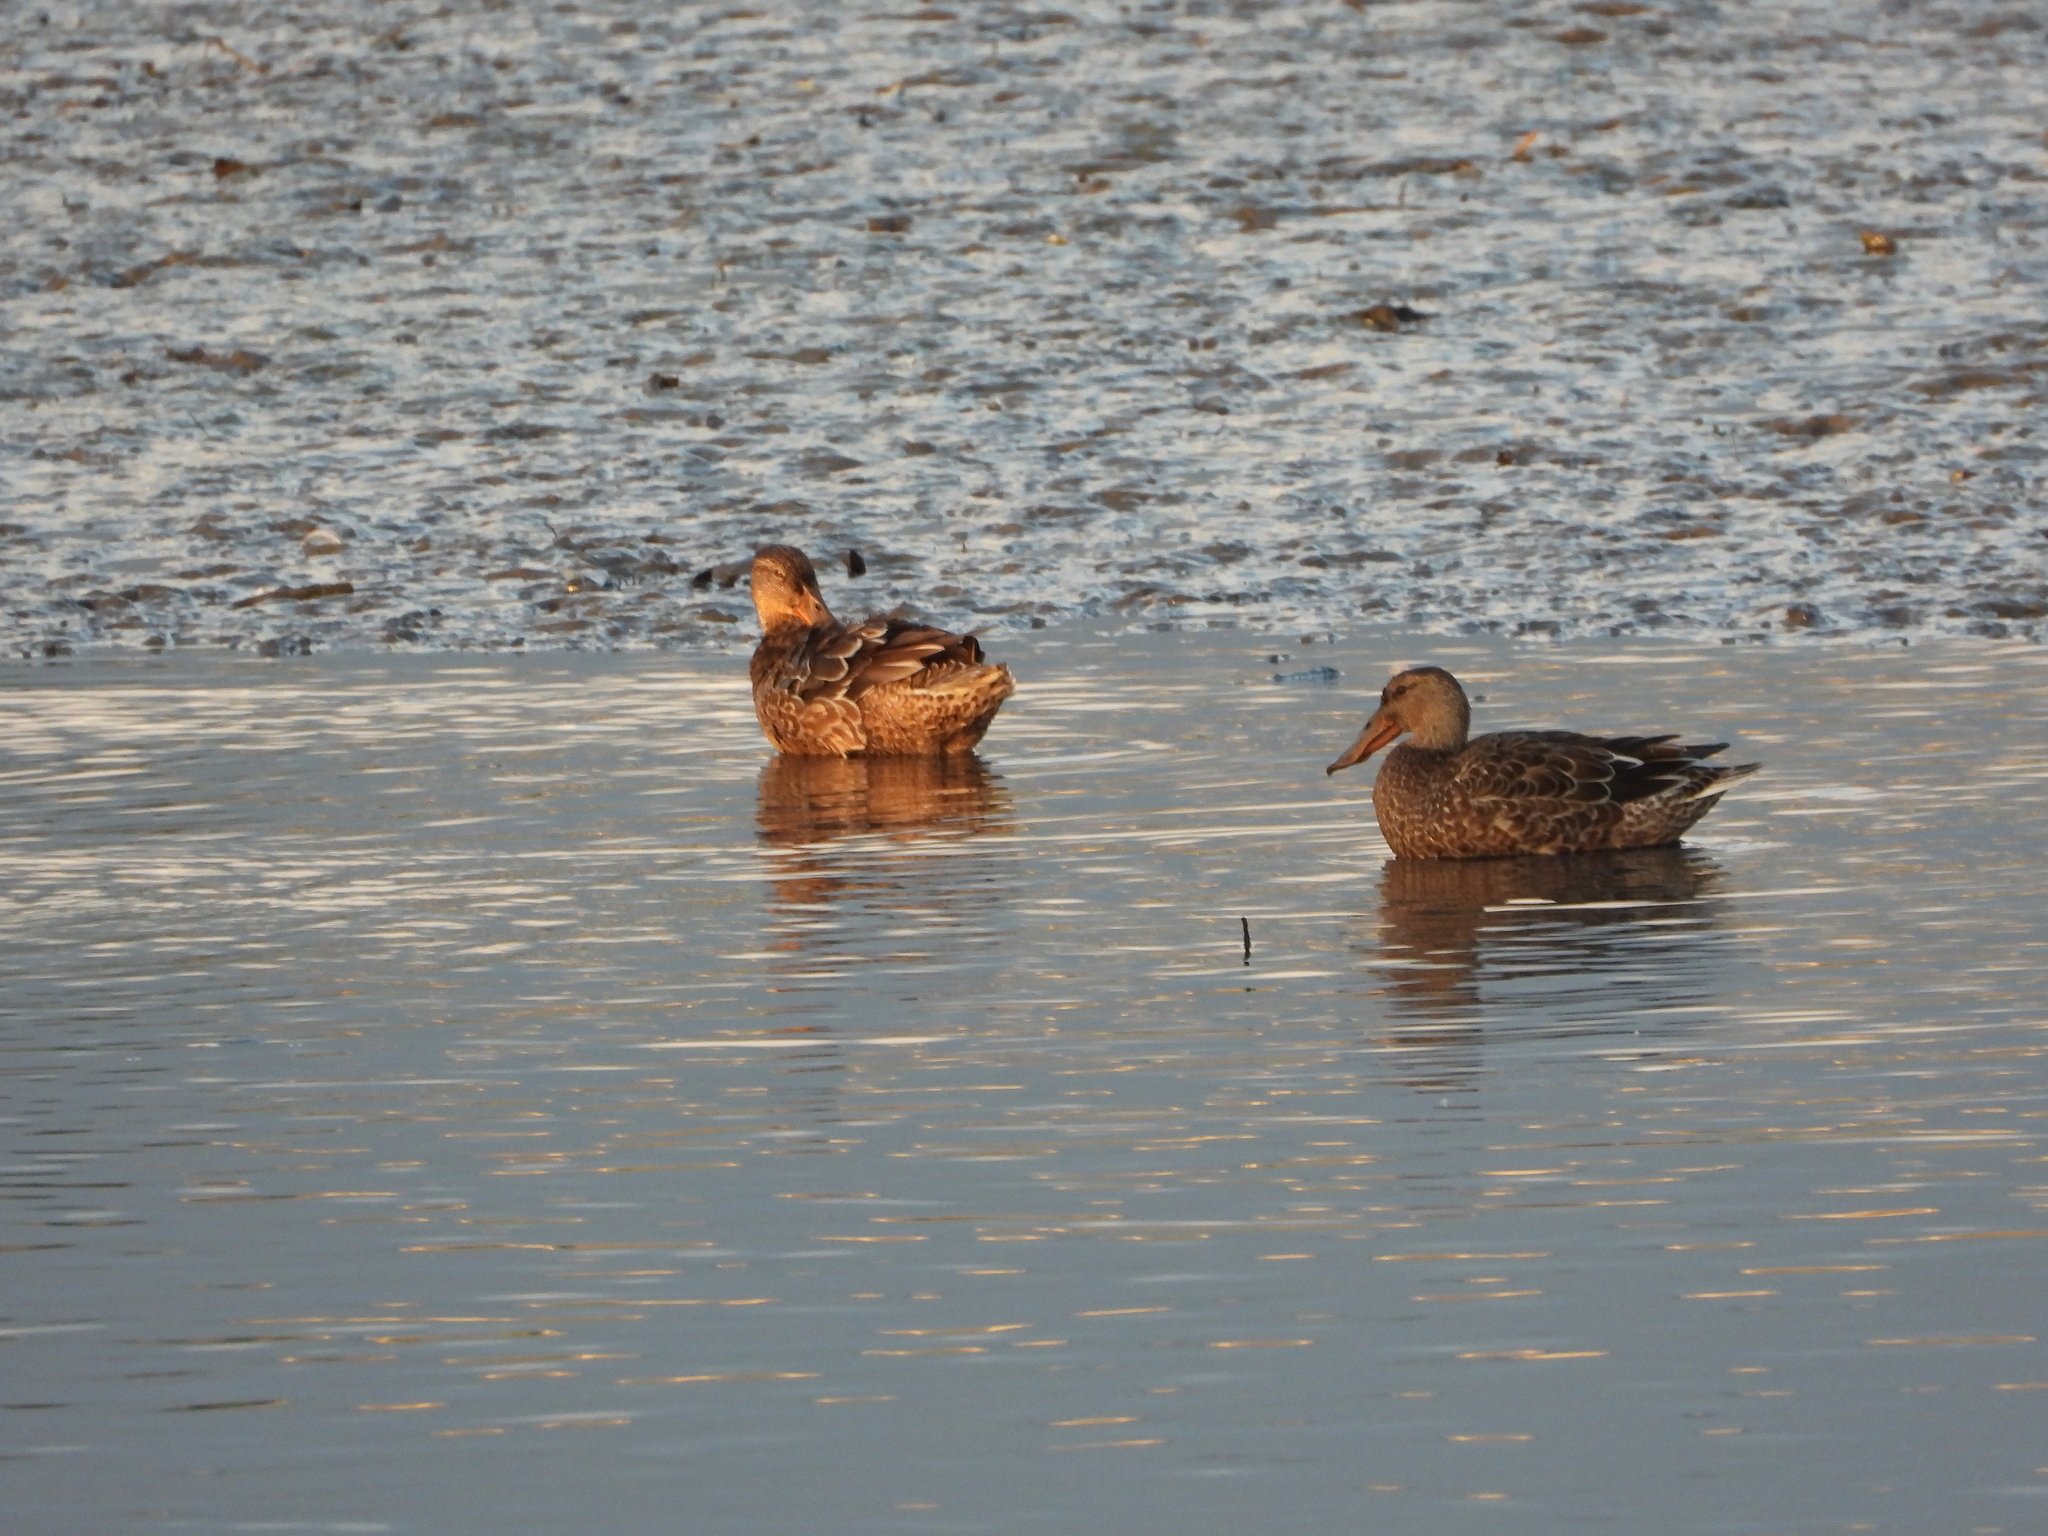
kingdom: Animalia
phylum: Chordata
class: Aves
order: Anseriformes
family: Anatidae
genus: Spatula
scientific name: Spatula clypeata
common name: Northern shoveler
